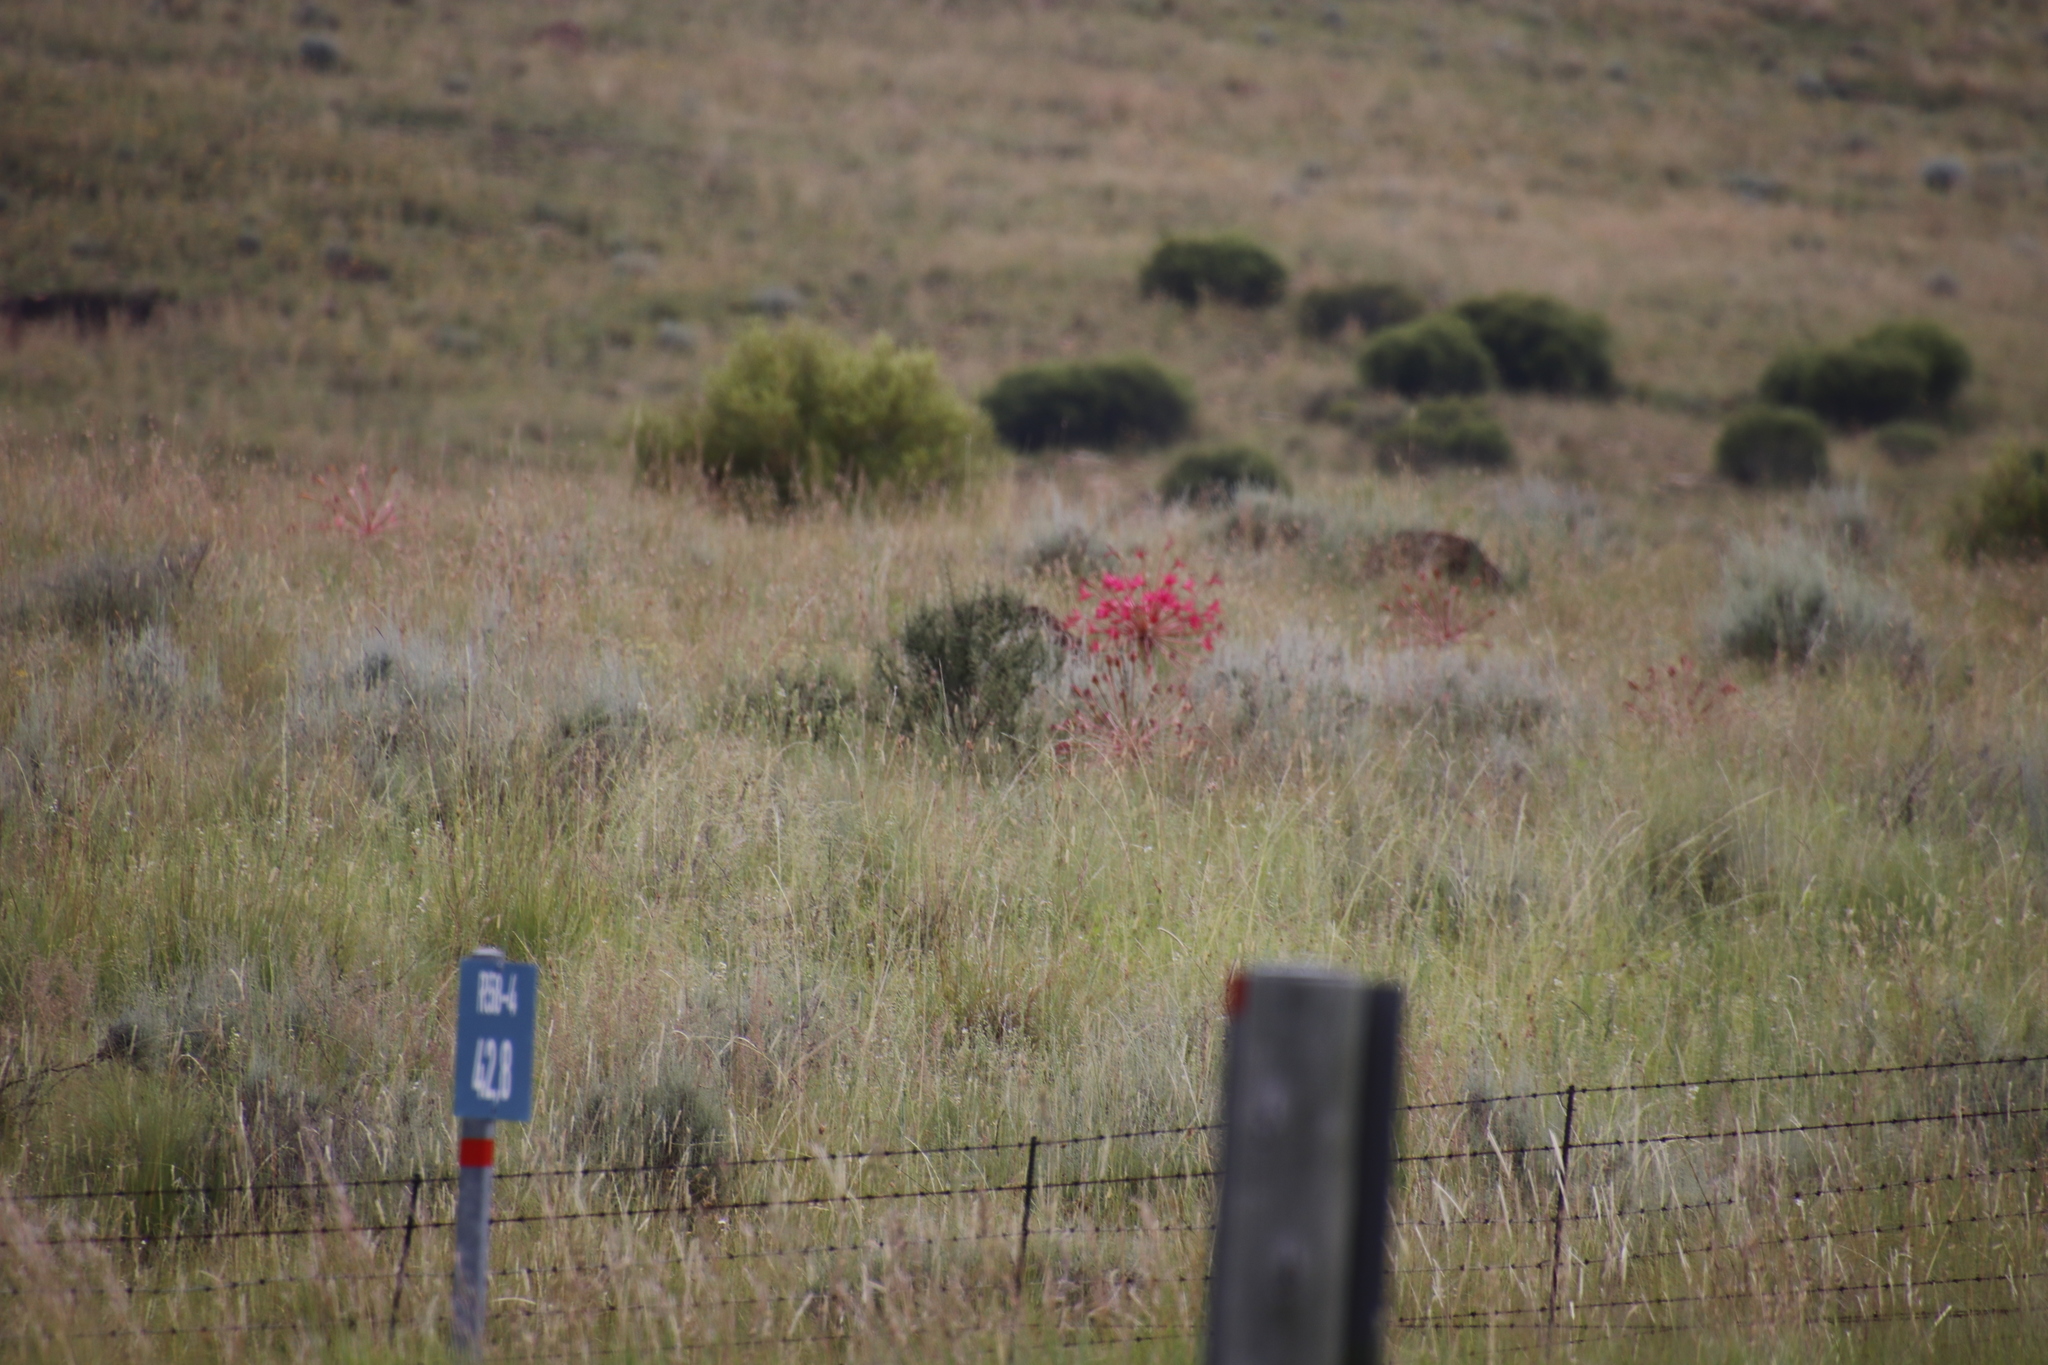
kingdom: Plantae
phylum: Tracheophyta
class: Liliopsida
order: Asparagales
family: Amaryllidaceae
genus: Brunsvigia
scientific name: Brunsvigia radulosa
